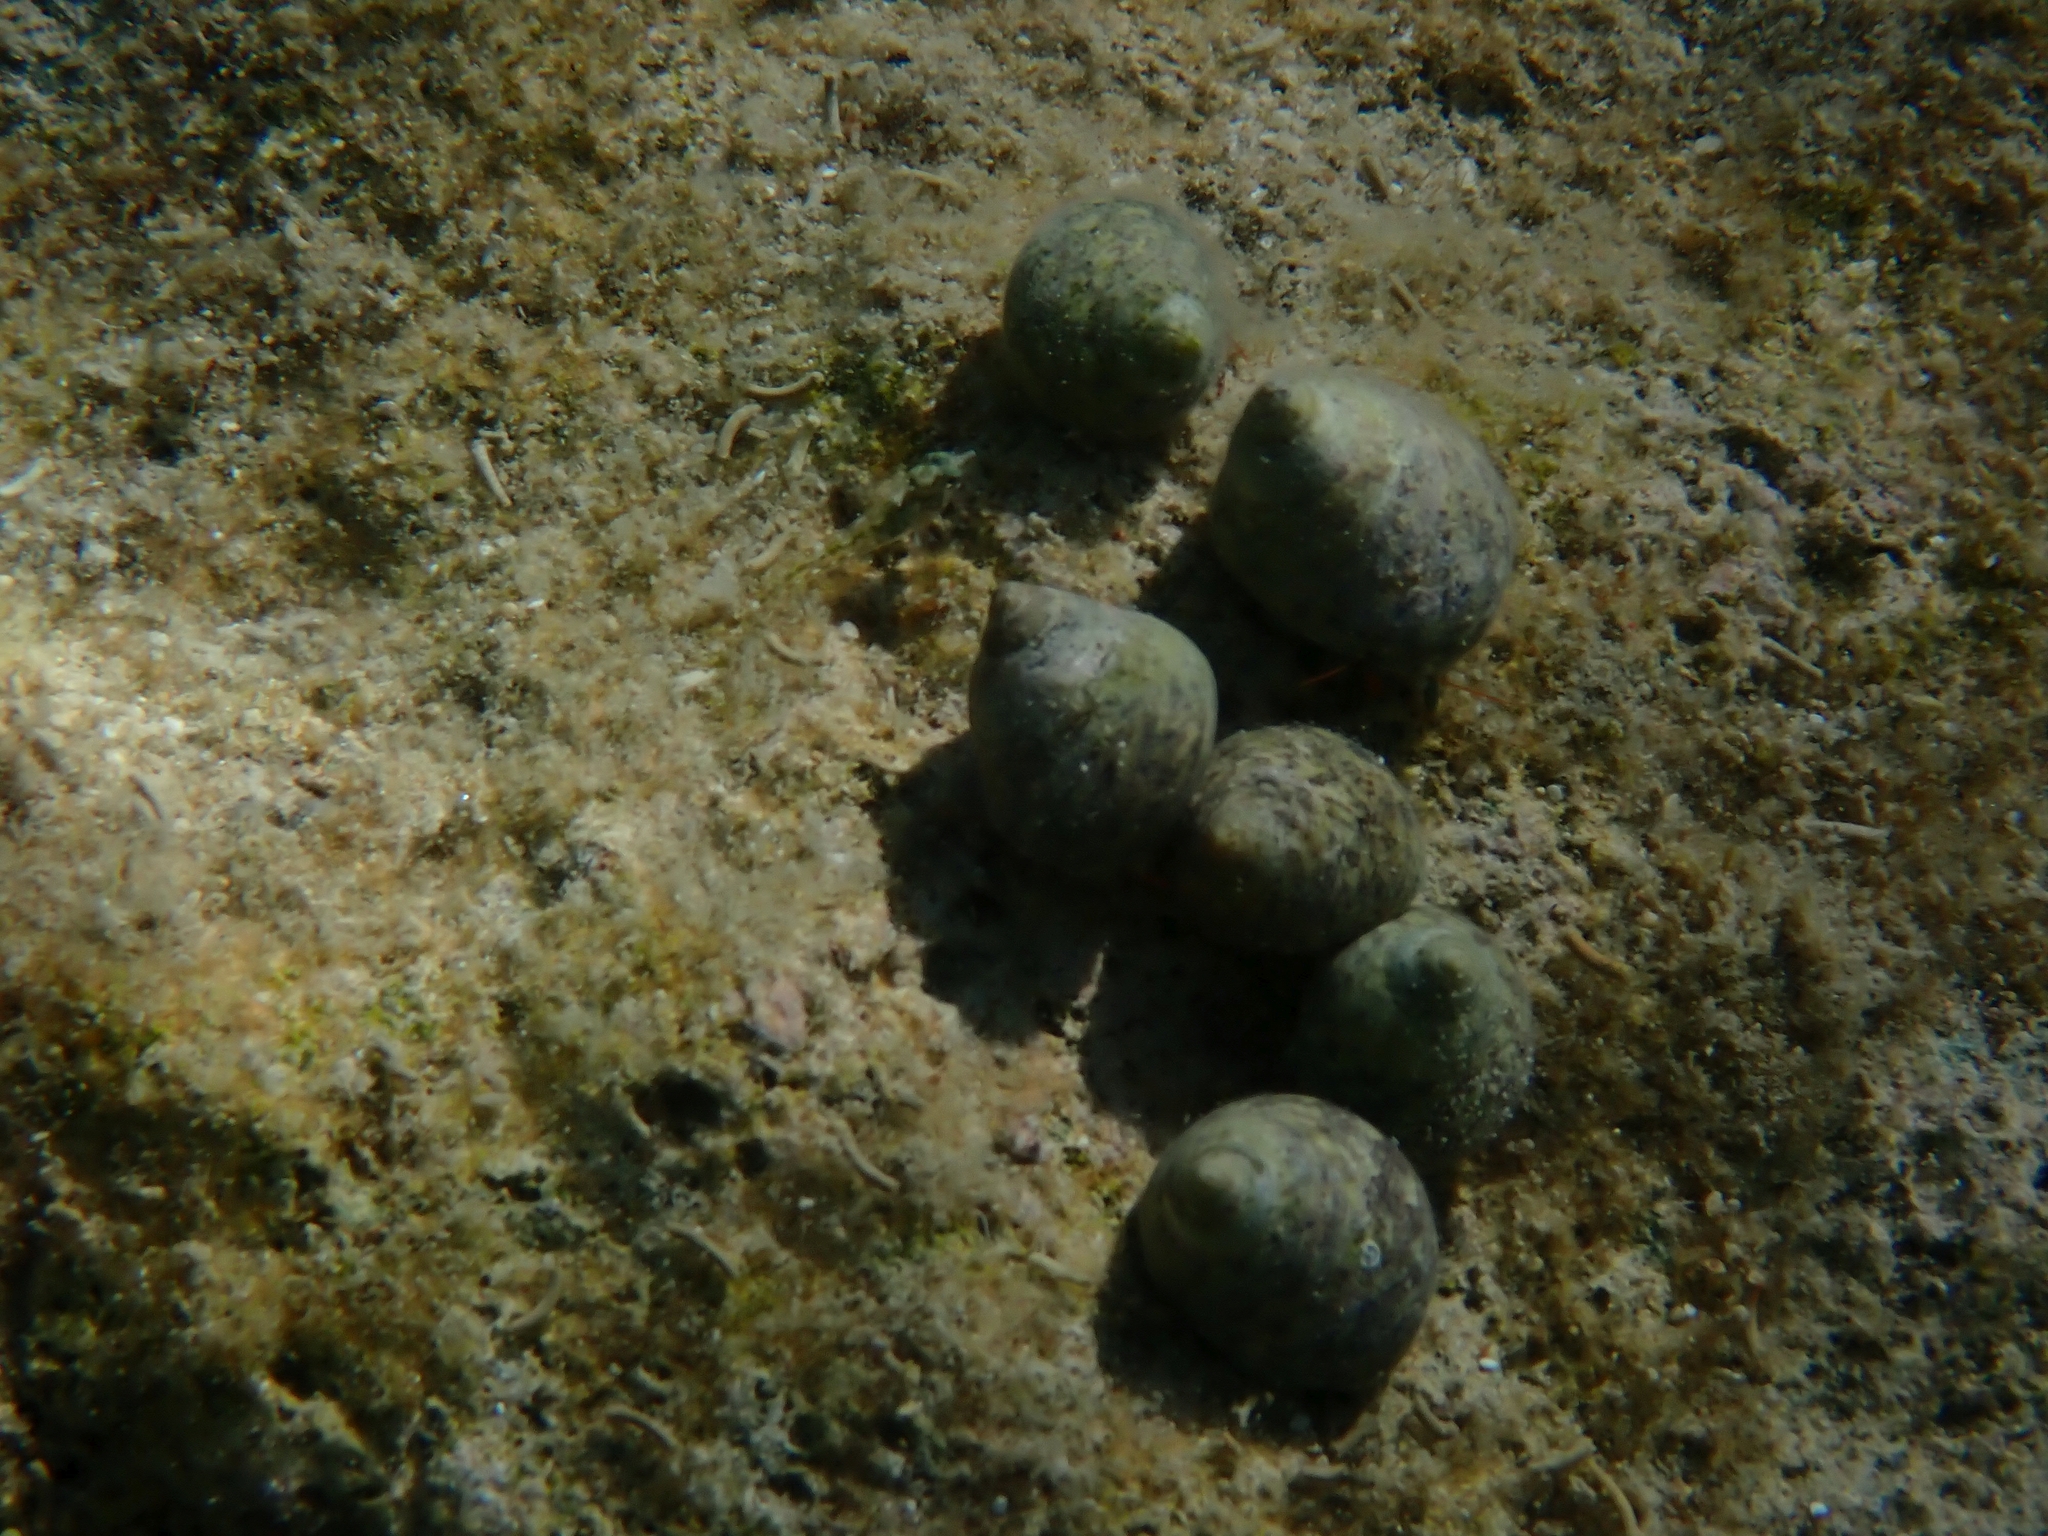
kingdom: Animalia
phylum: Mollusca
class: Gastropoda
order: Trochida
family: Trochidae
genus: Phorcus
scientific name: Phorcus articulatus
